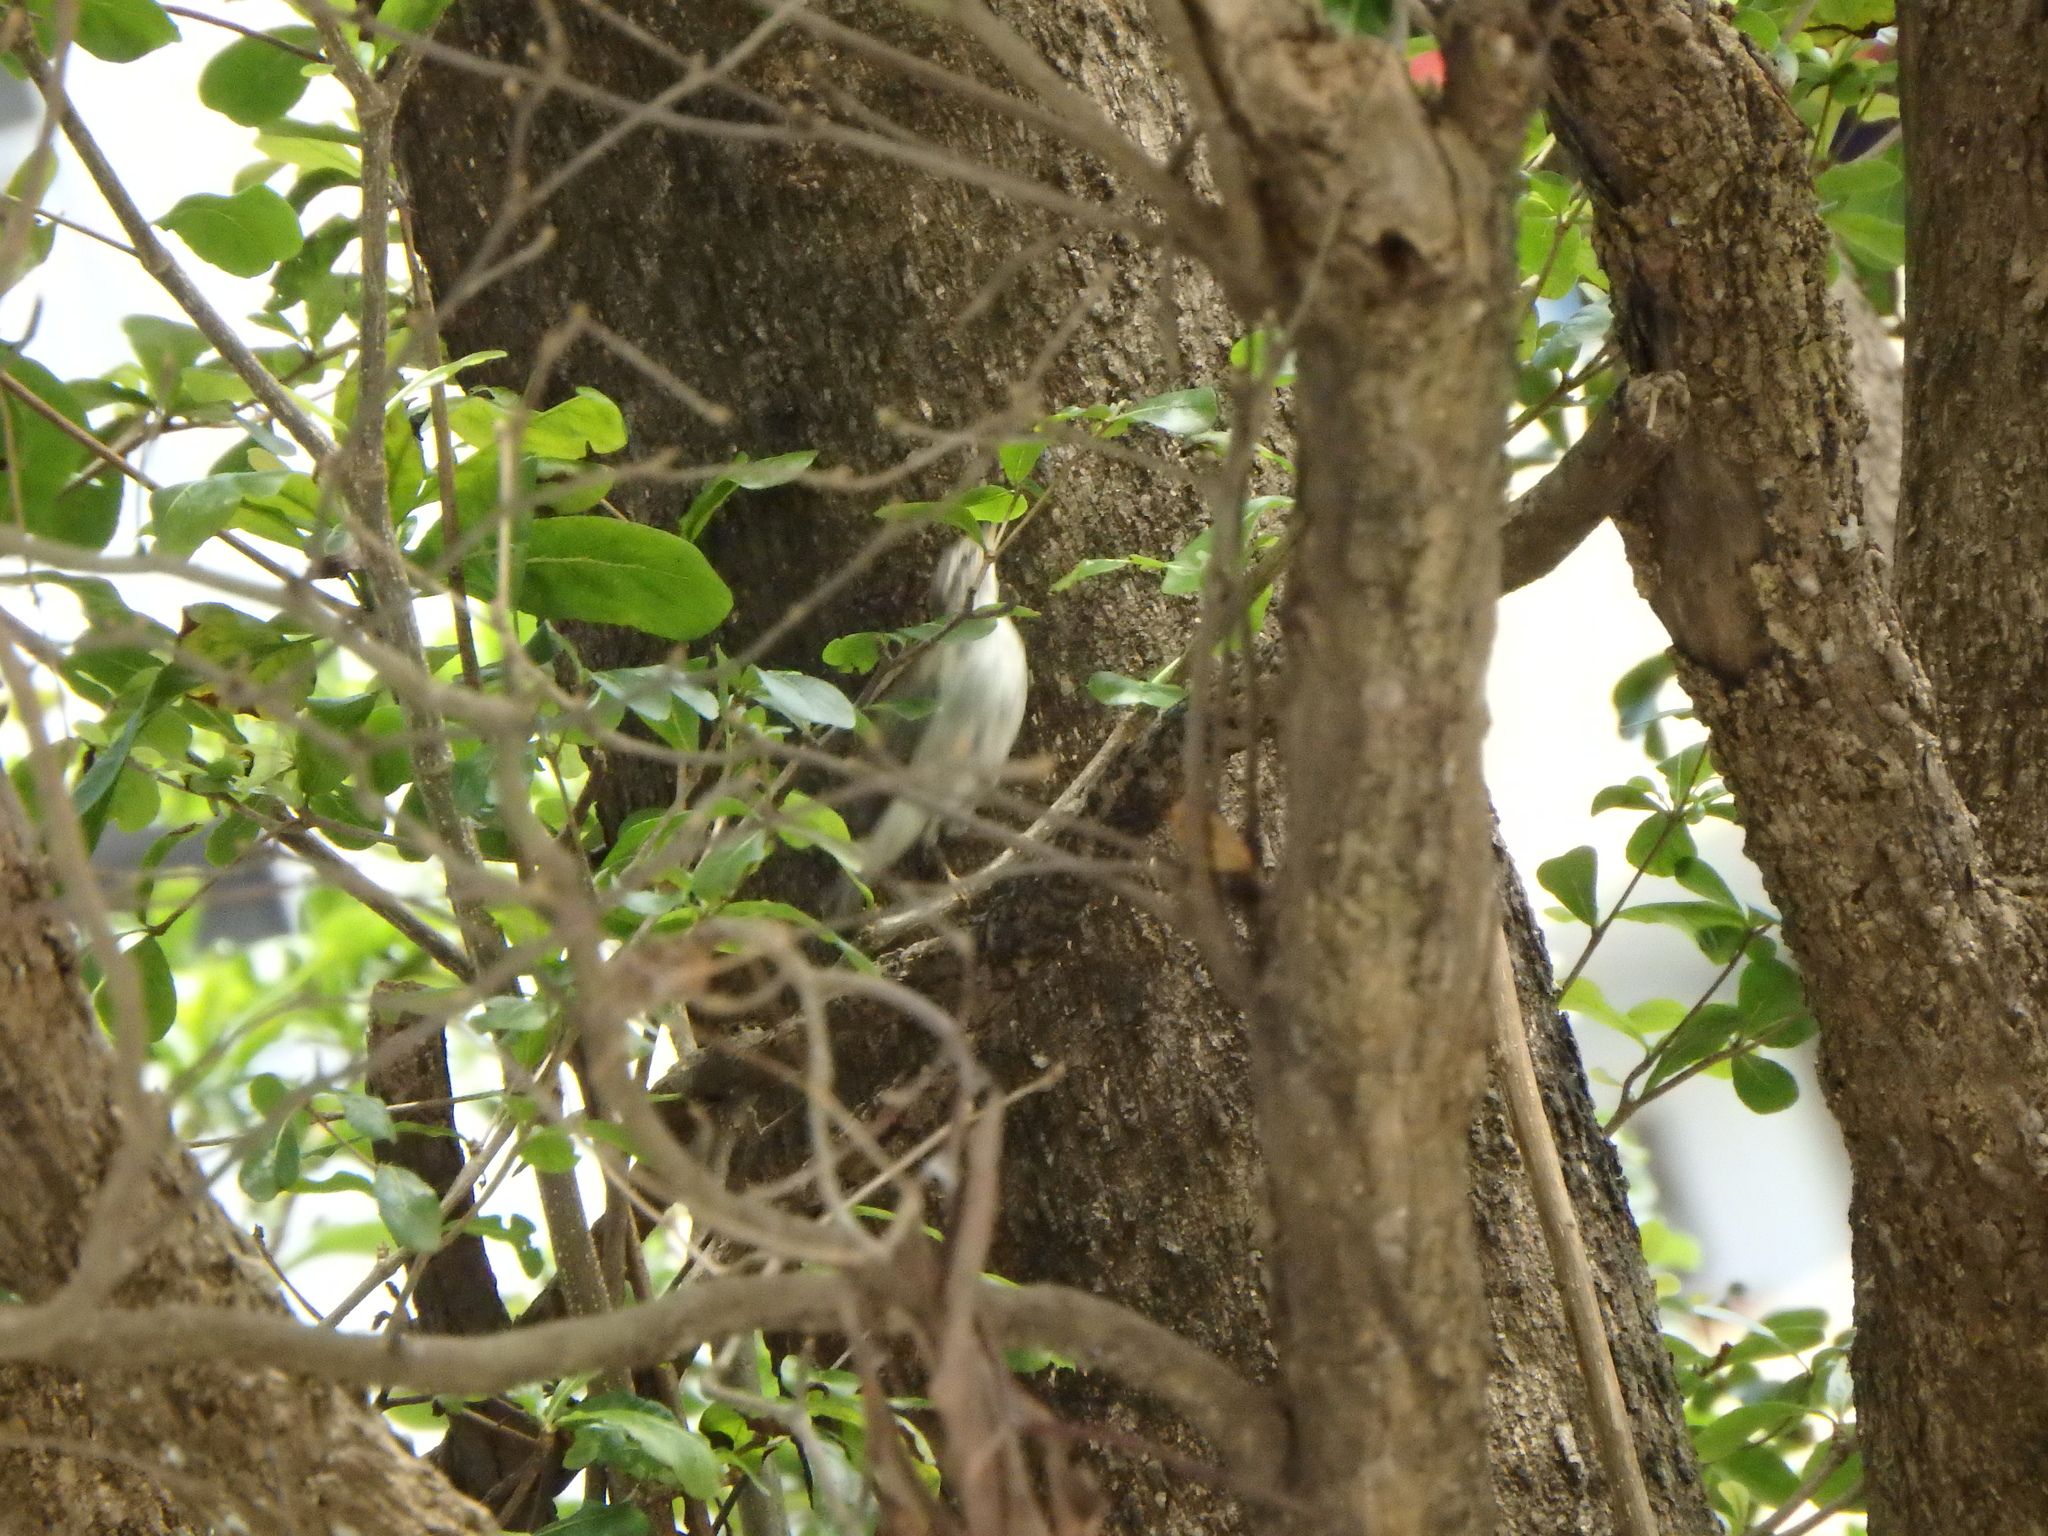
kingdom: Animalia
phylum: Chordata
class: Aves
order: Passeriformes
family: Phylloscopidae
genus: Phylloscopus
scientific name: Phylloscopus borealis
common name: Arctic warbler
